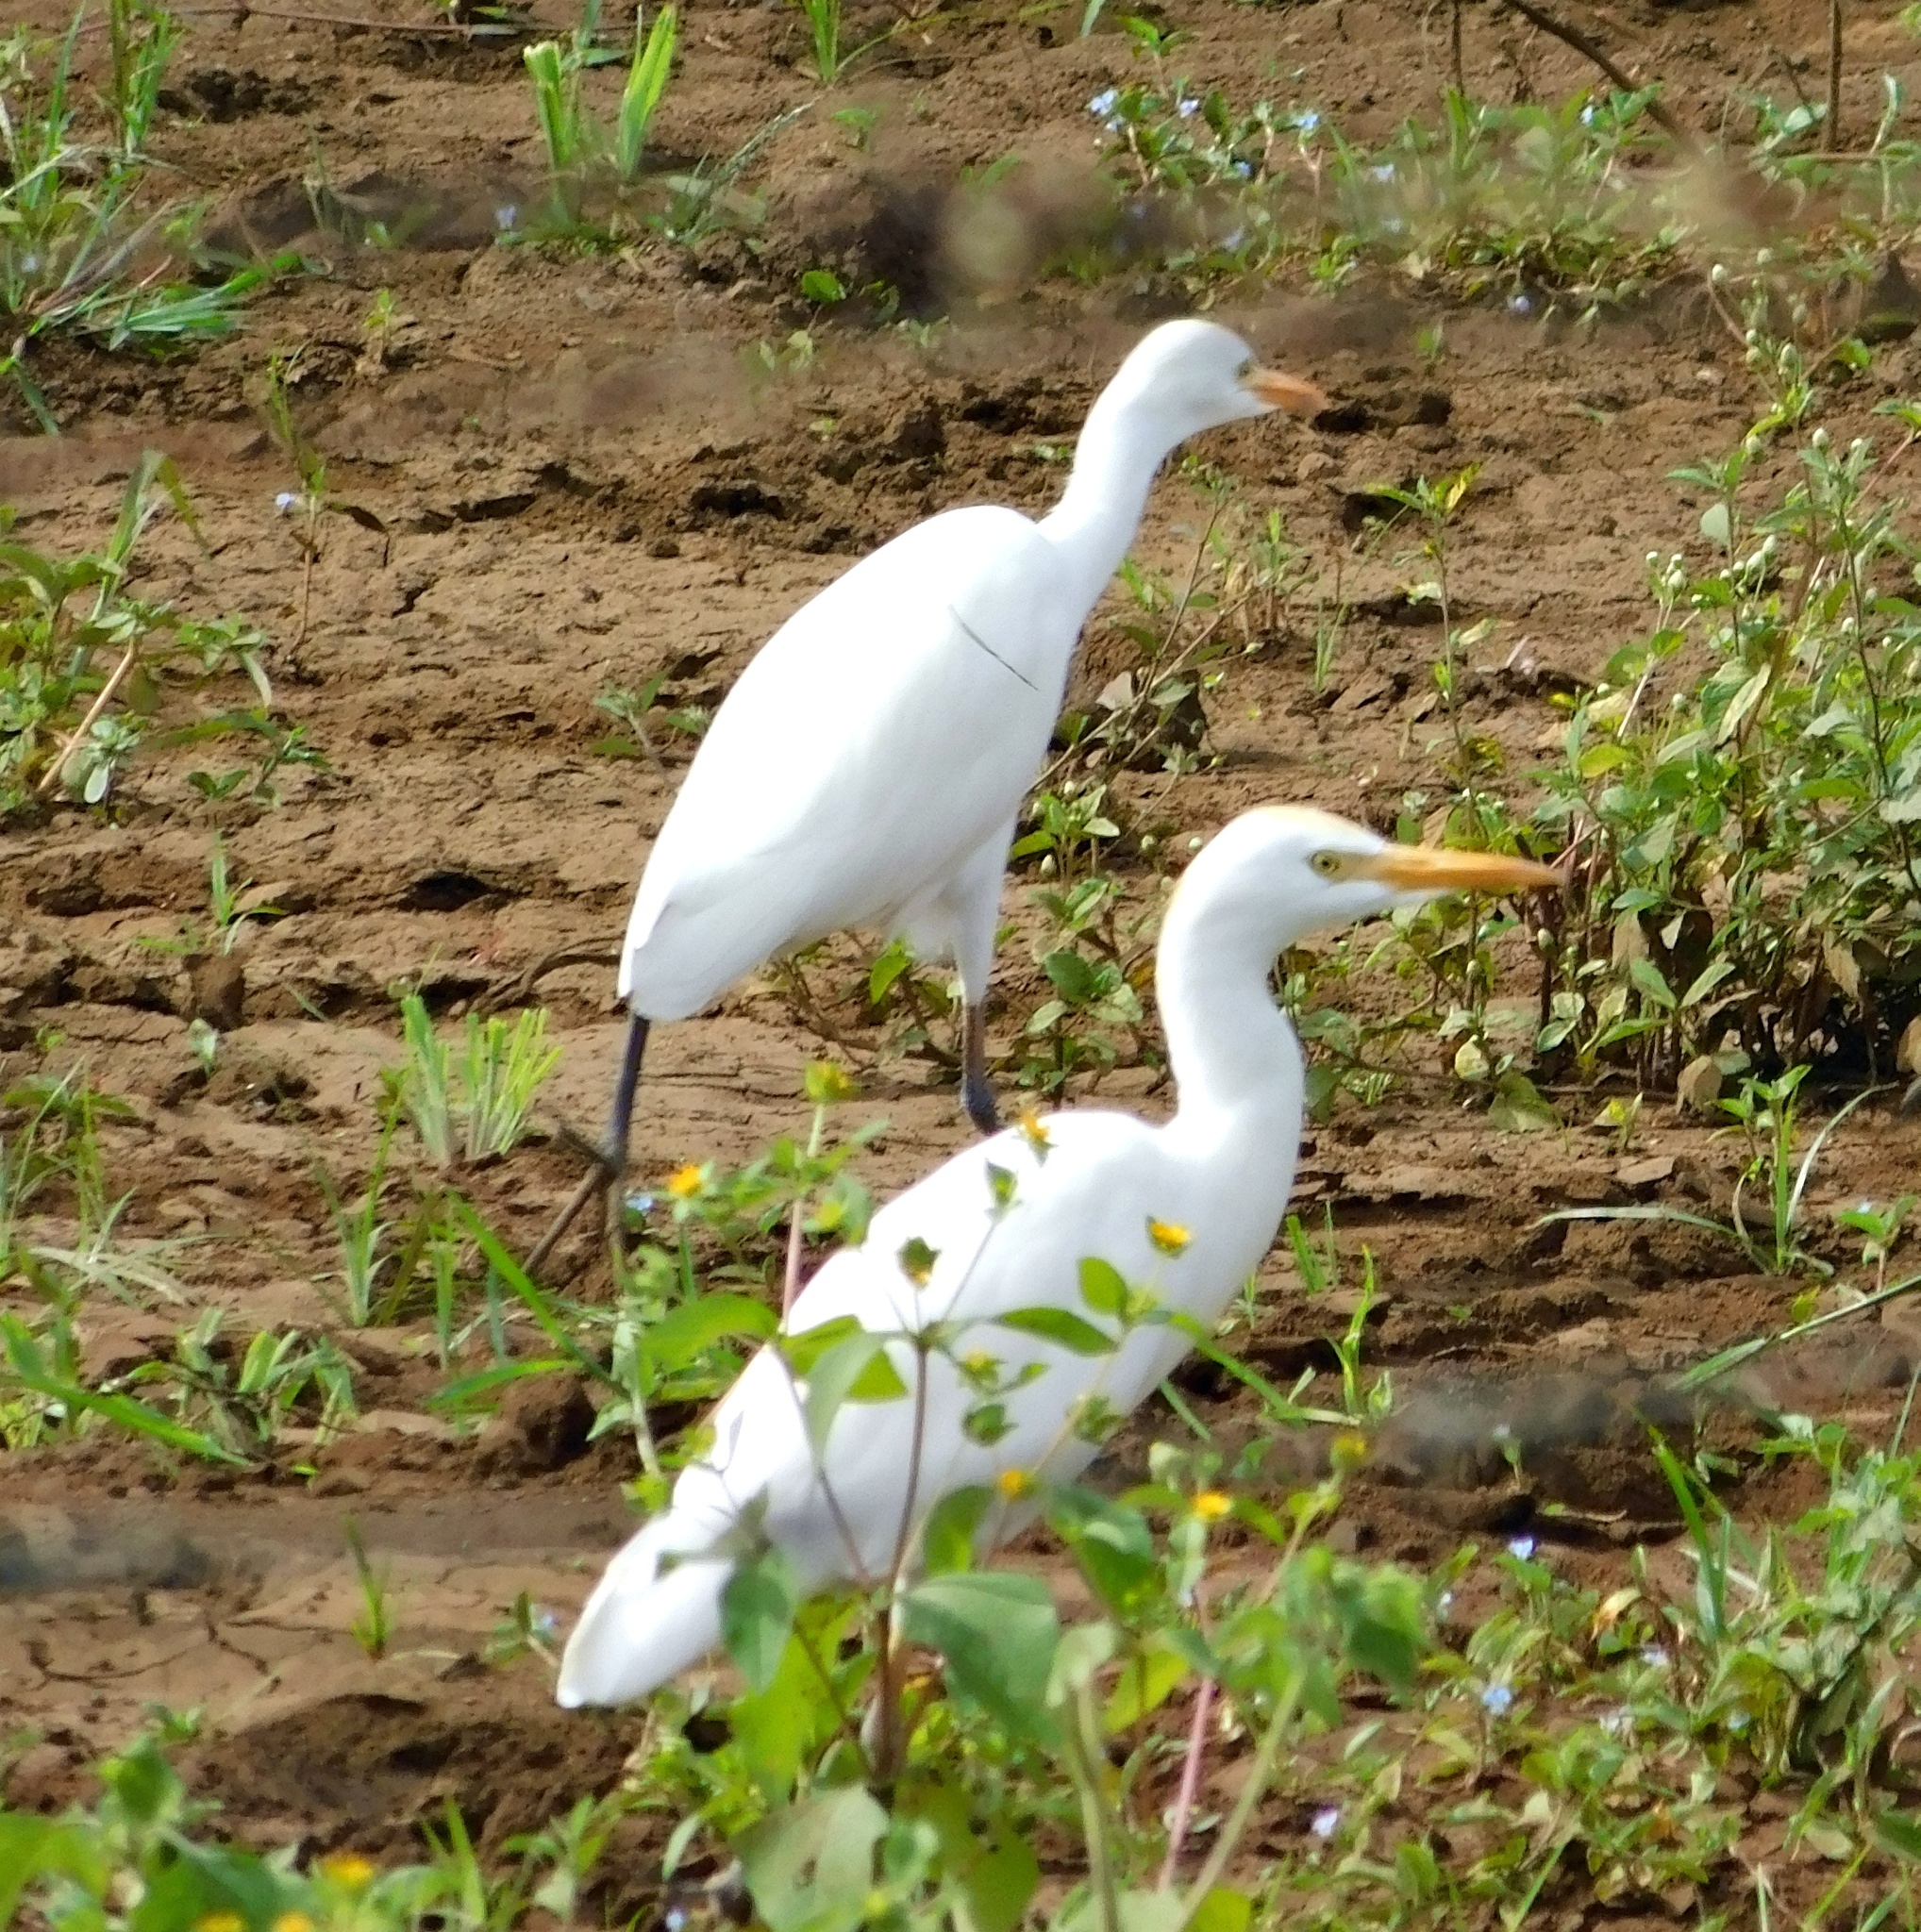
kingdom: Animalia
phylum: Chordata
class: Aves
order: Pelecaniformes
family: Ardeidae
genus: Bubulcus
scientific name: Bubulcus ibis
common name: Cattle egret
